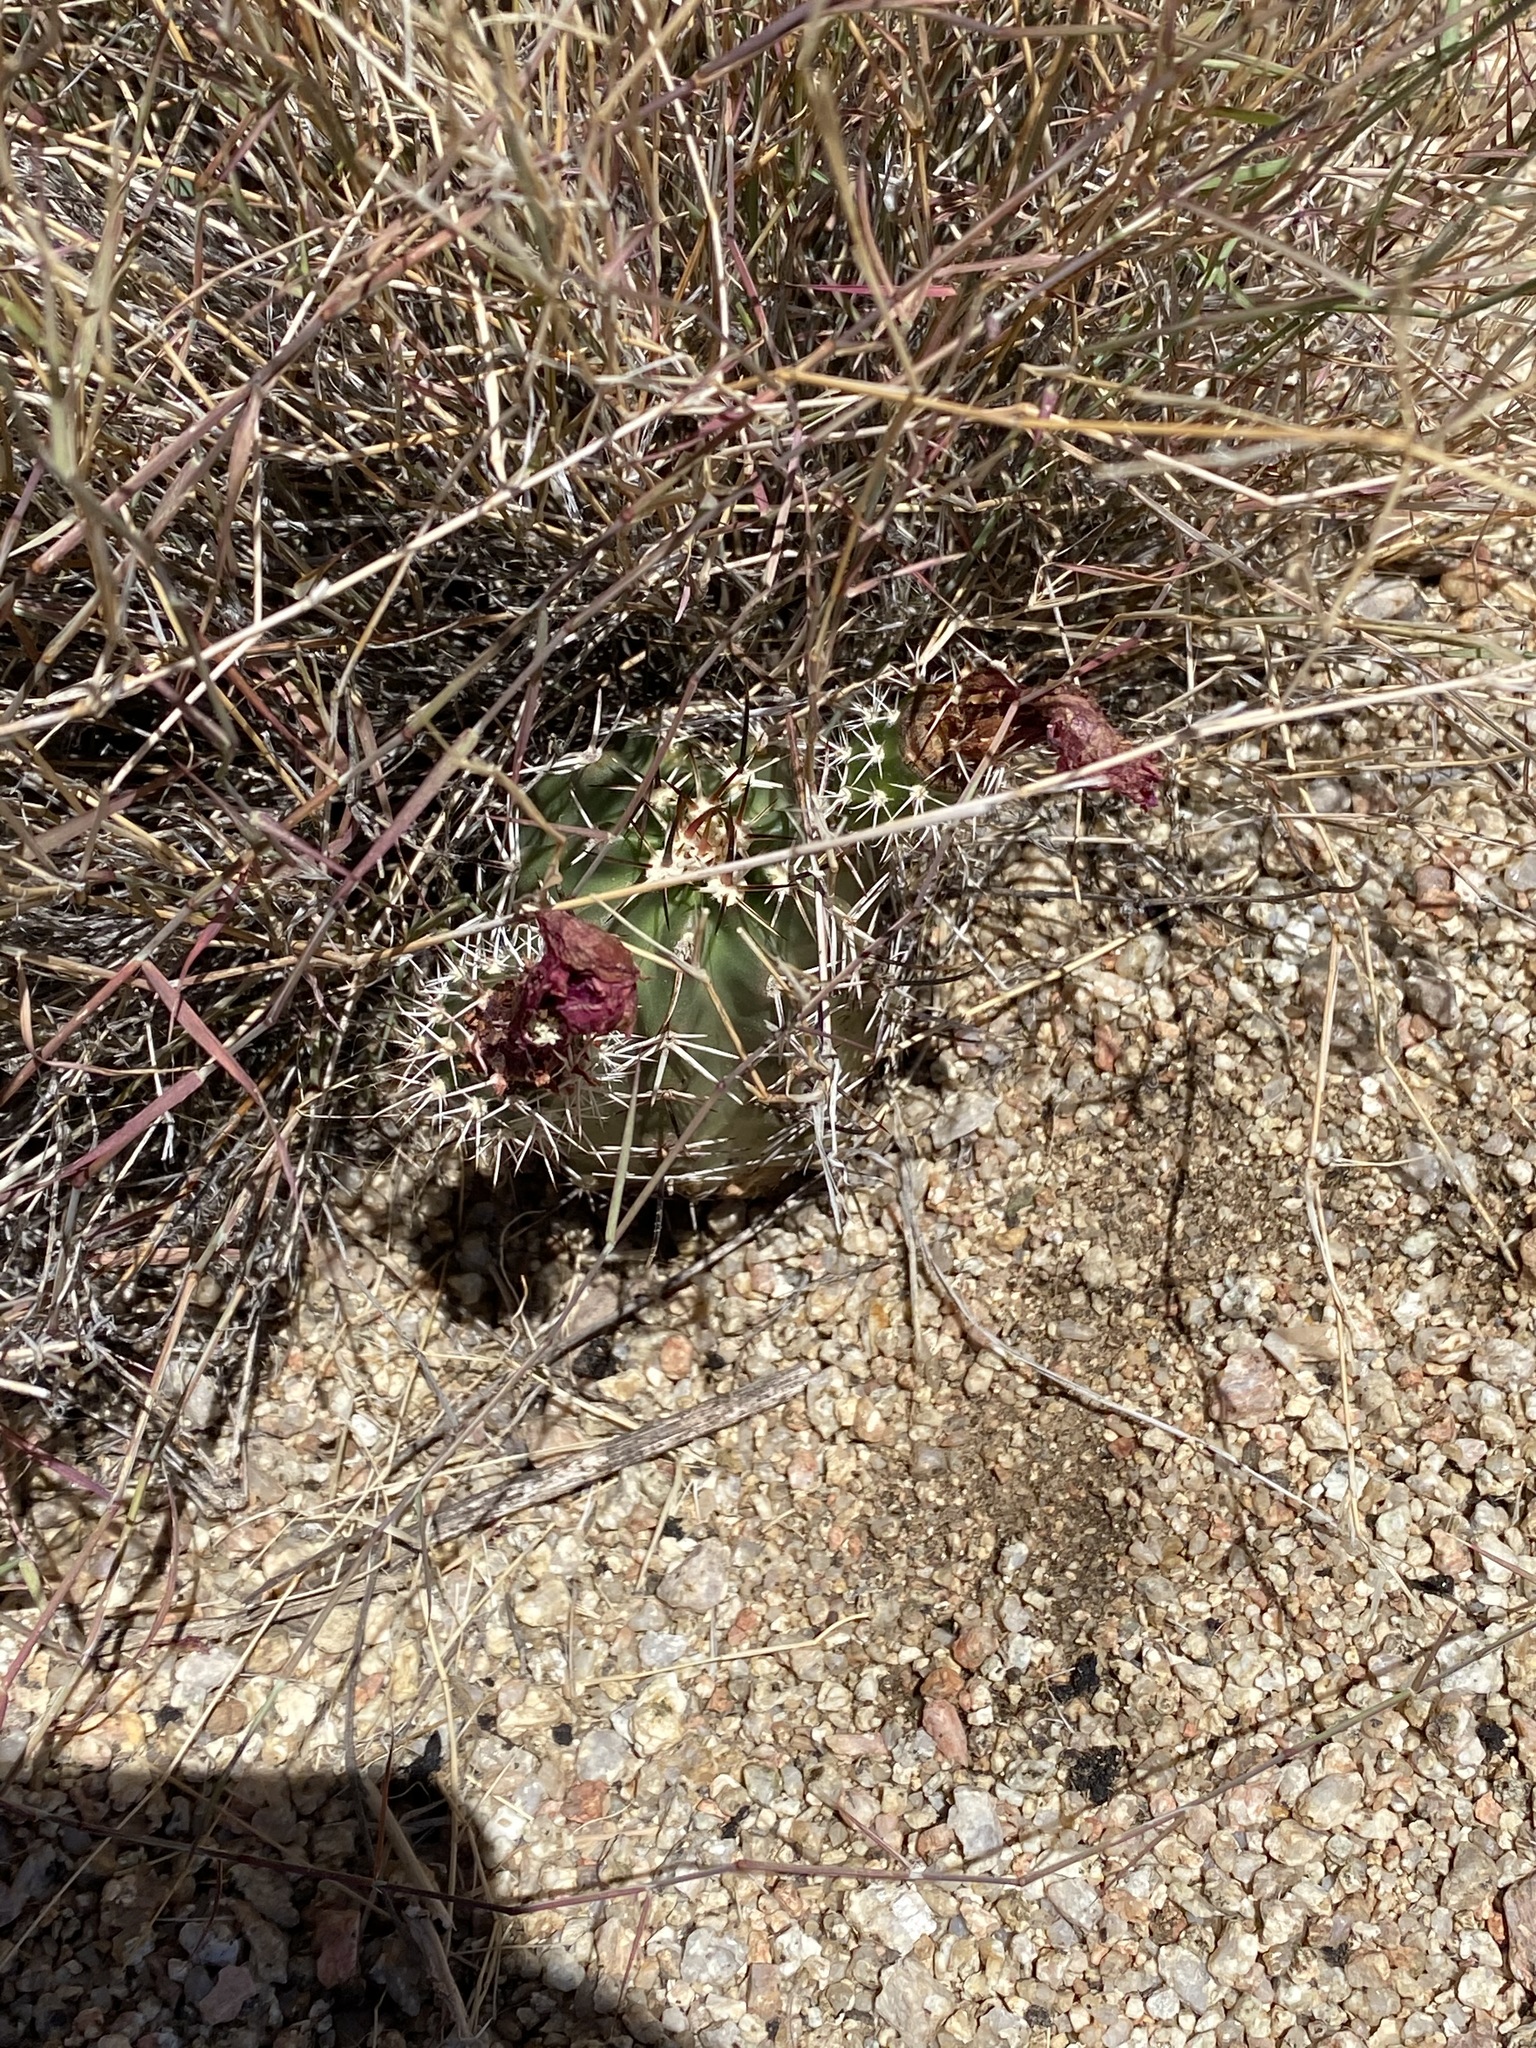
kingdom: Plantae
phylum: Tracheophyta
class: Magnoliopsida
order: Caryophyllales
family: Cactaceae
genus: Echinocereus
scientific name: Echinocereus fendleri
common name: Fendler's hedgehog cactus
